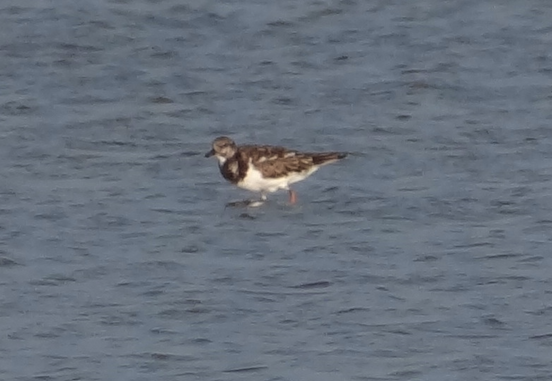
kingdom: Animalia
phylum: Chordata
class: Aves
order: Charadriiformes
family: Scolopacidae
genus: Arenaria
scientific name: Arenaria interpres
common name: Ruddy turnstone
